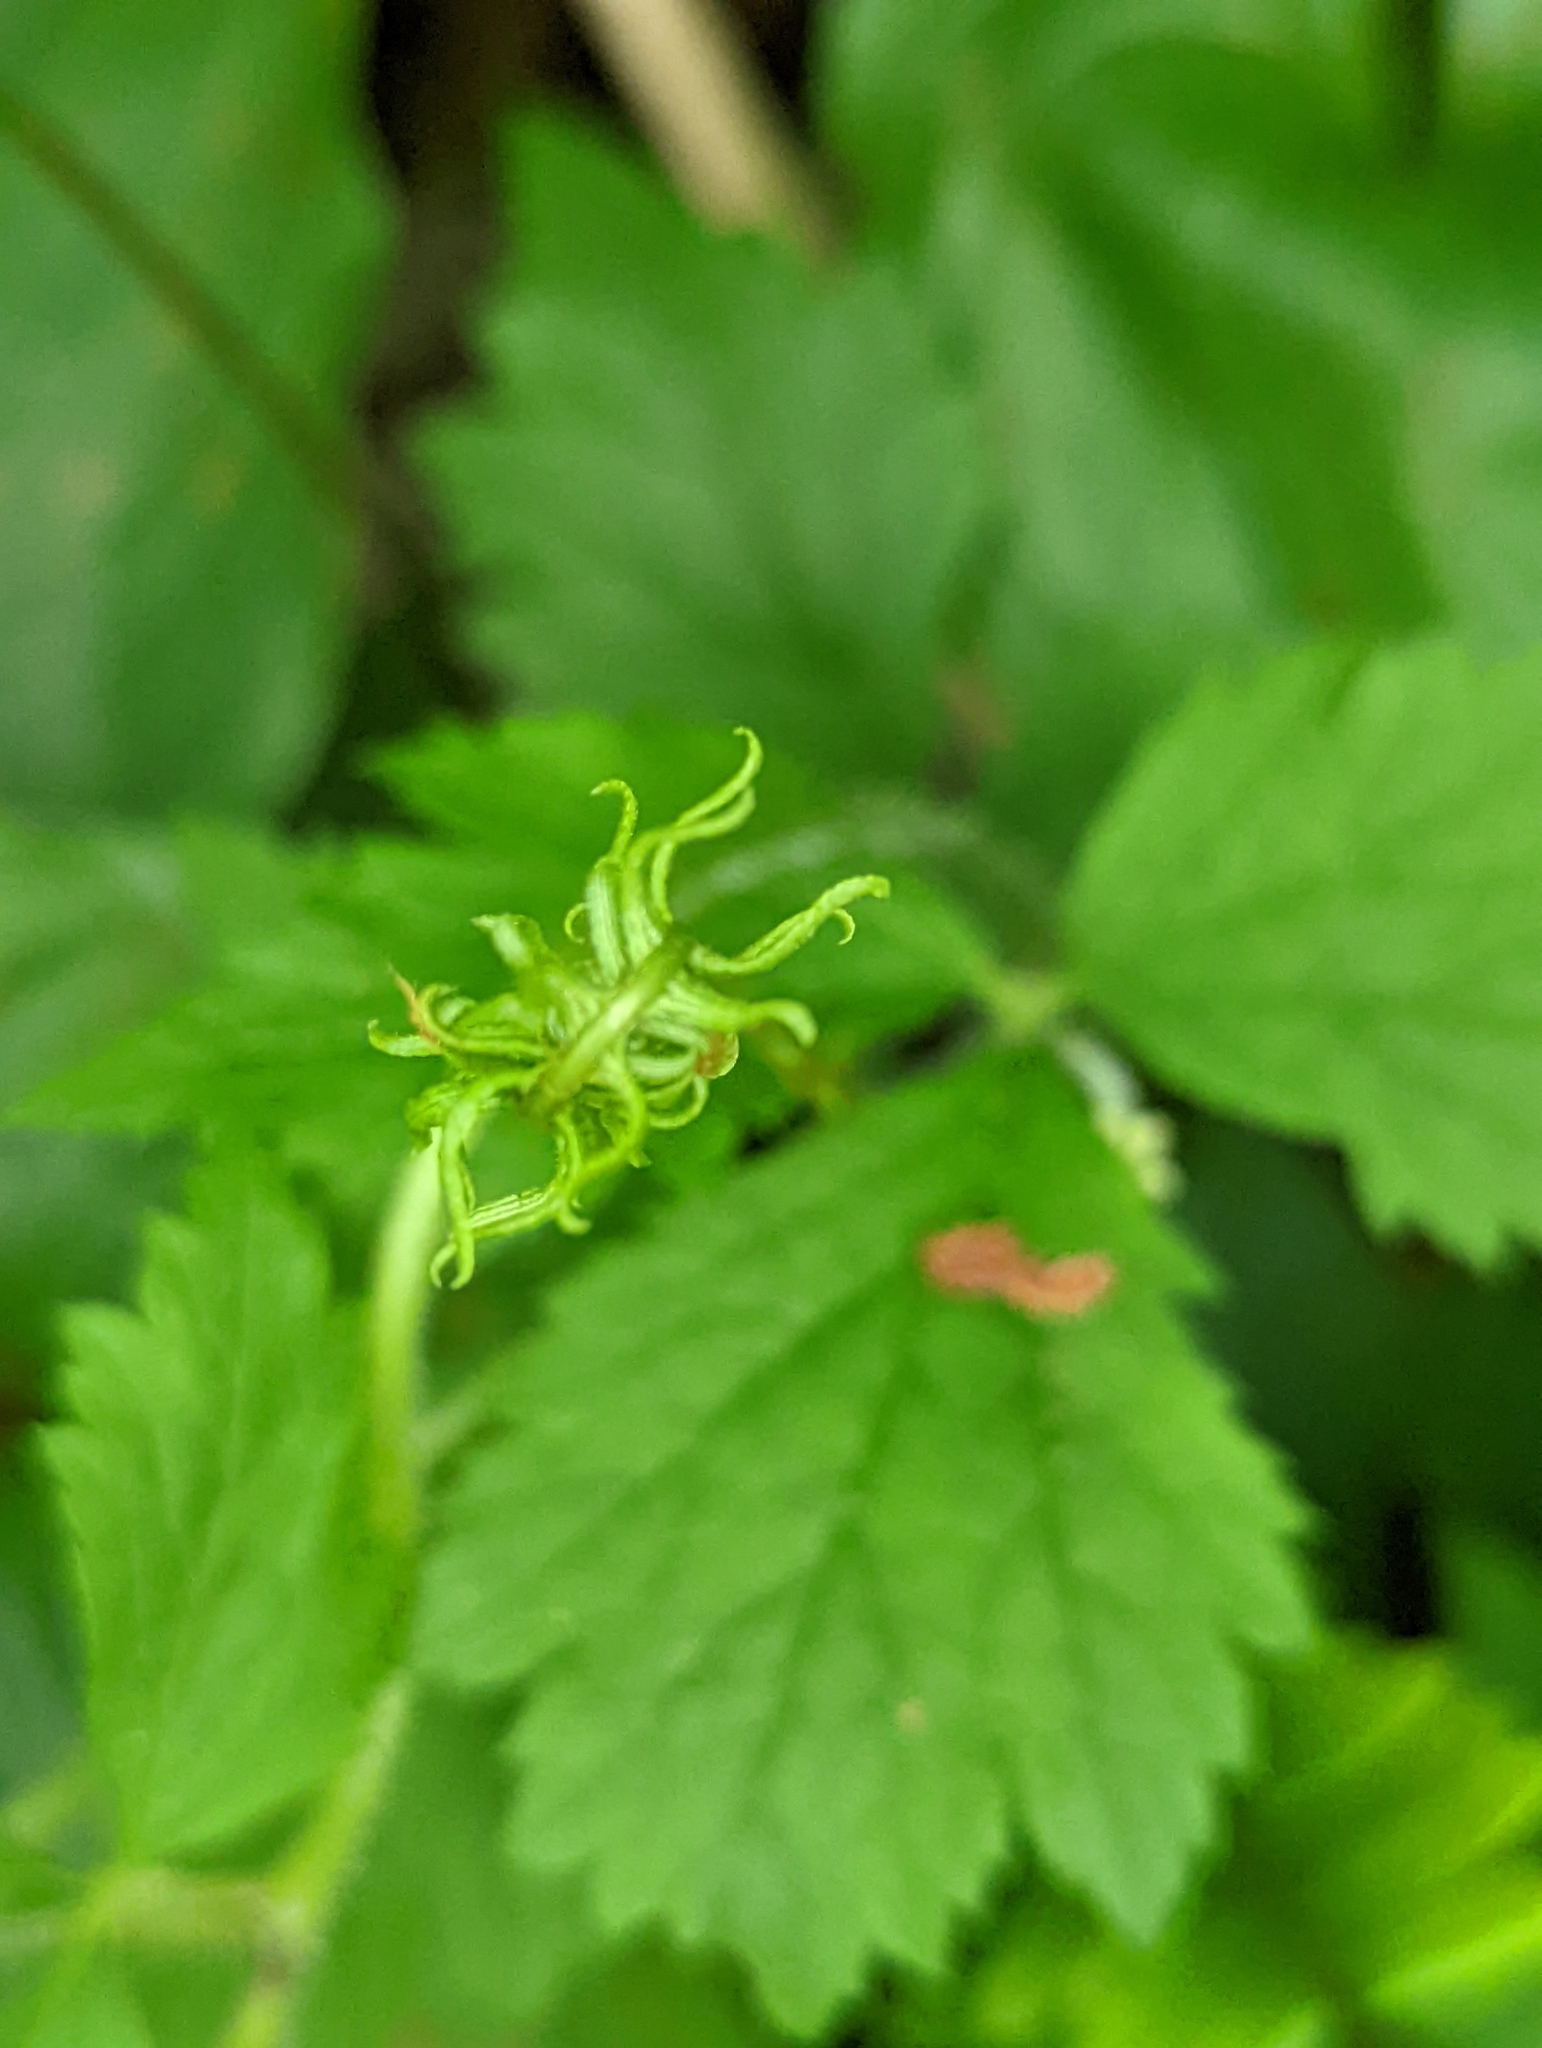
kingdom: Plantae
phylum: Tracheophyta
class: Magnoliopsida
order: Saxifragales
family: Saxifragaceae
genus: Tiarella
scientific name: Tiarella trifoliata
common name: Sugar-scoop
